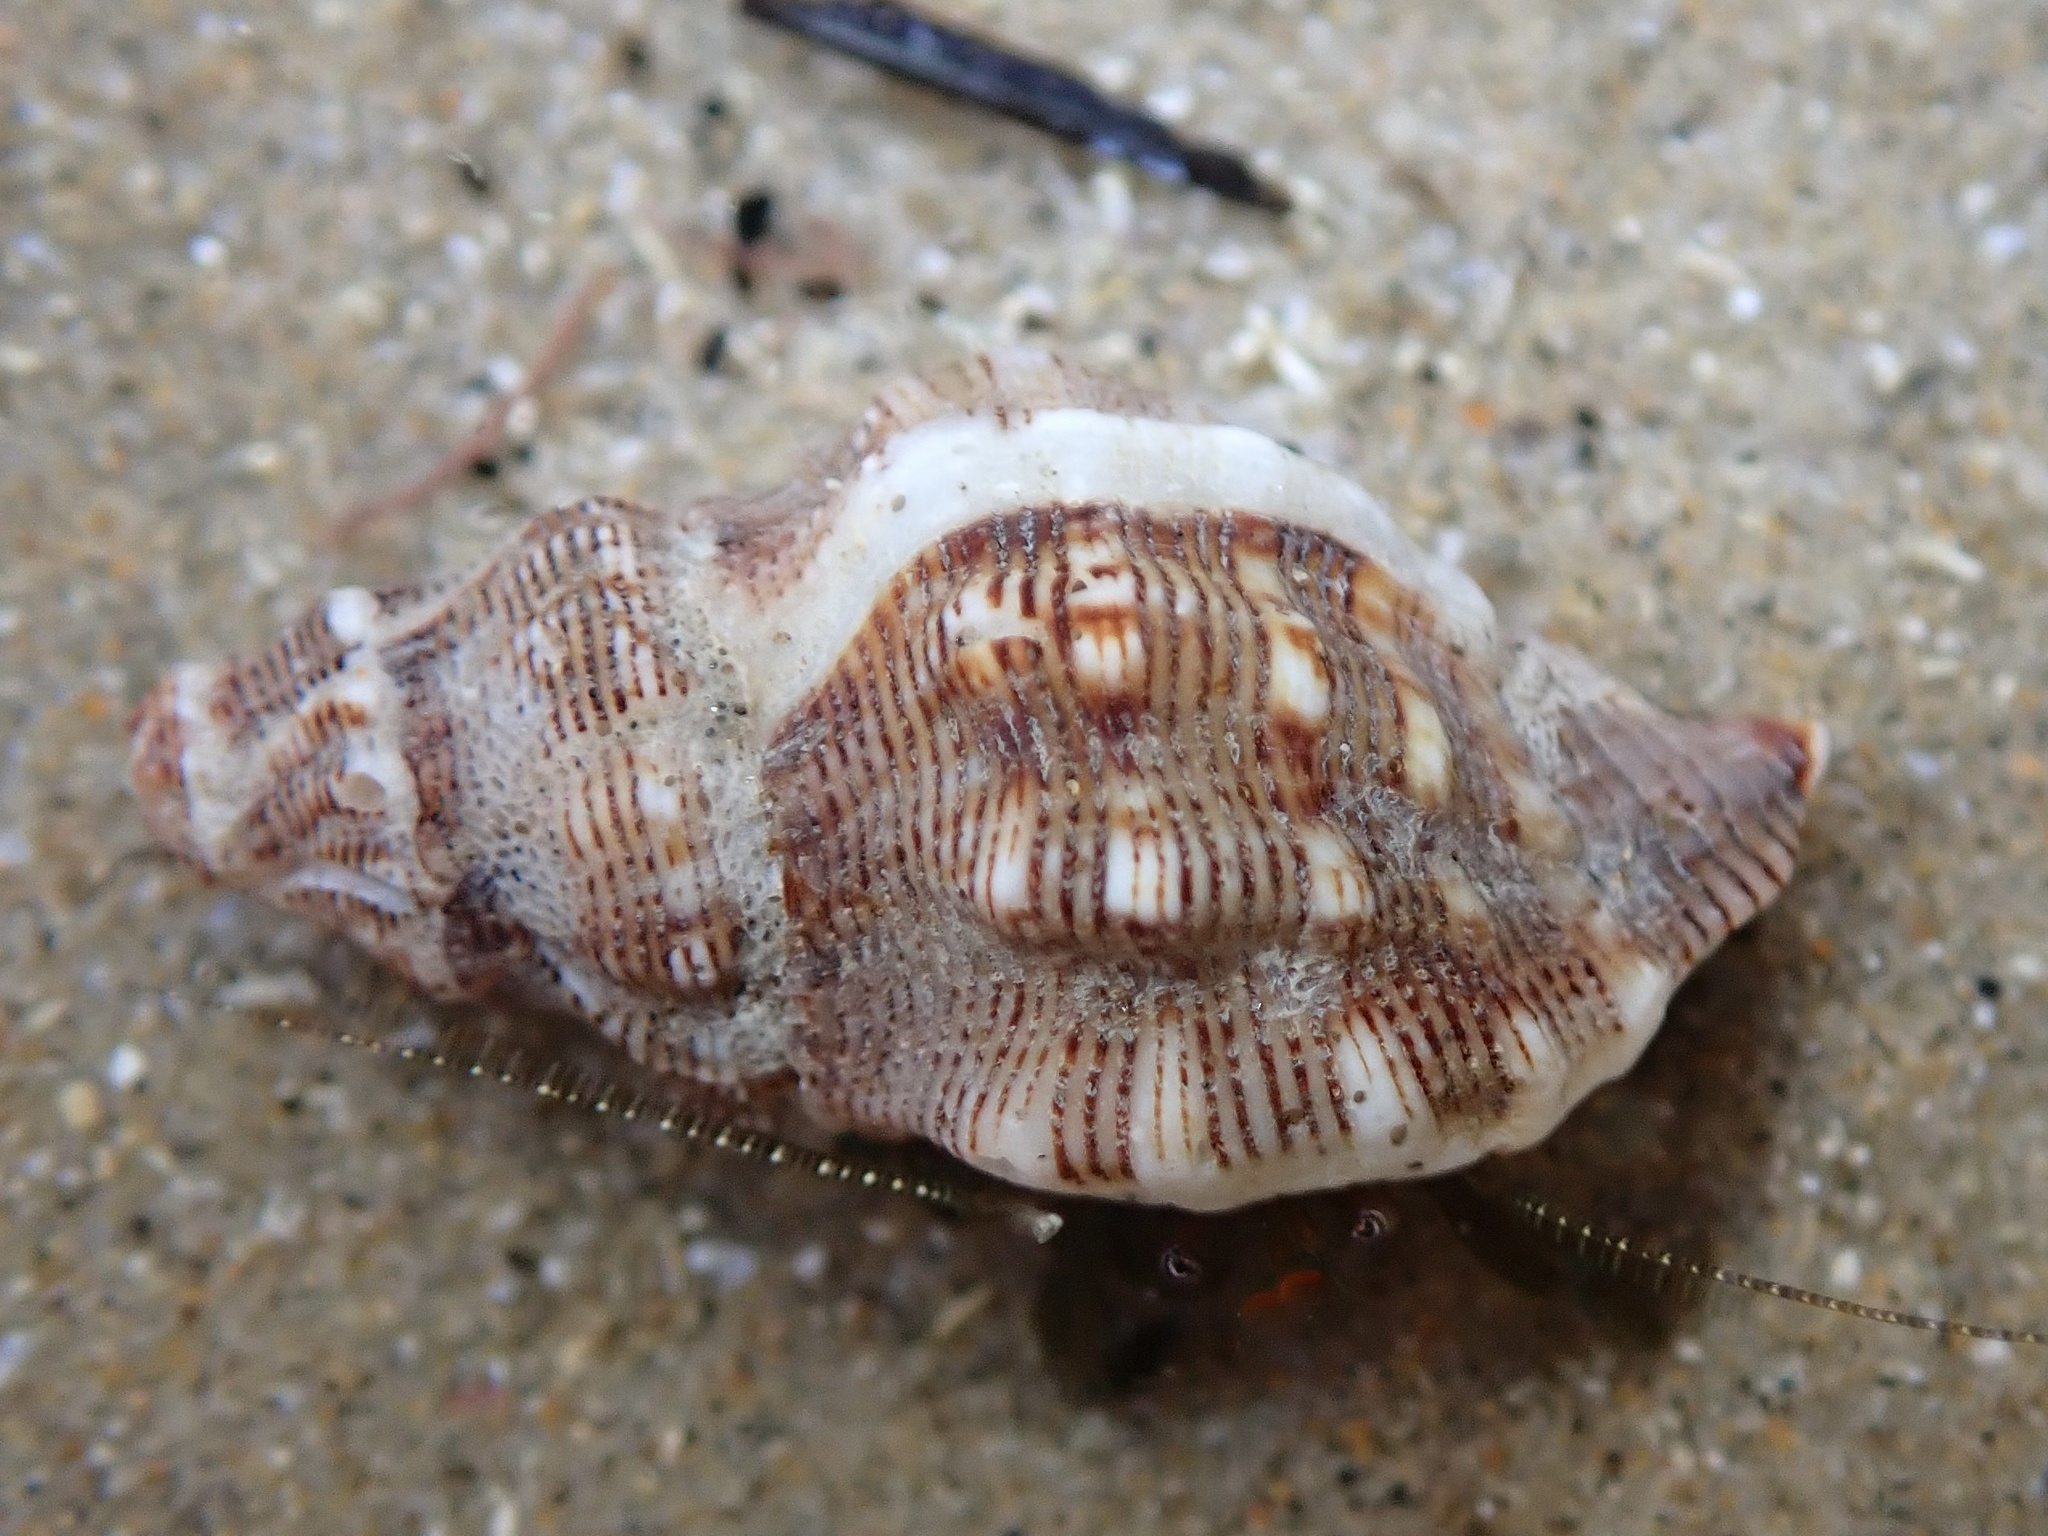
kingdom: Animalia
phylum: Mollusca
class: Gastropoda
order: Neogastropoda
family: Muricidae
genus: Roperia
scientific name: Roperia poulsoni
